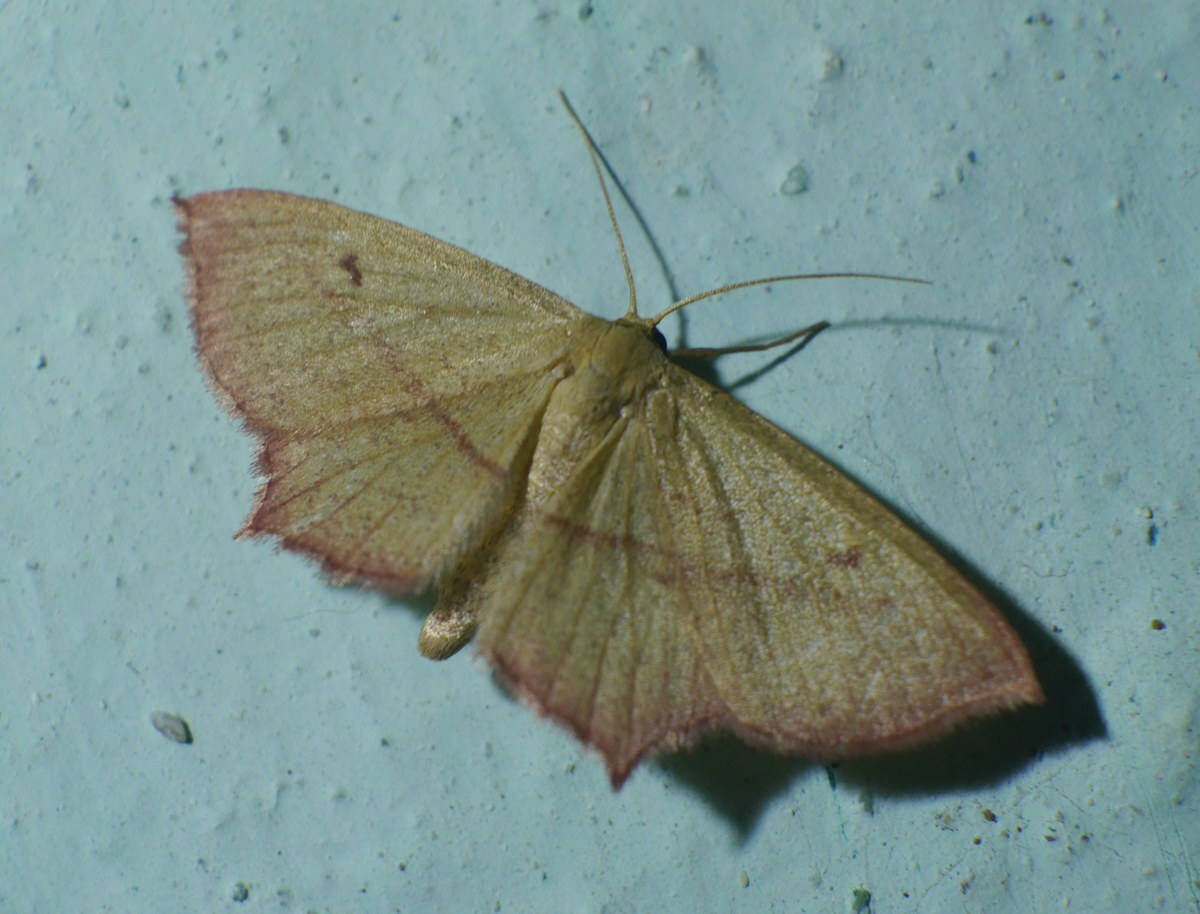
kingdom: Animalia
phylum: Arthropoda
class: Insecta
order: Lepidoptera
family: Geometridae
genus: Timandra
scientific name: Timandra comae
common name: Blood-vein
